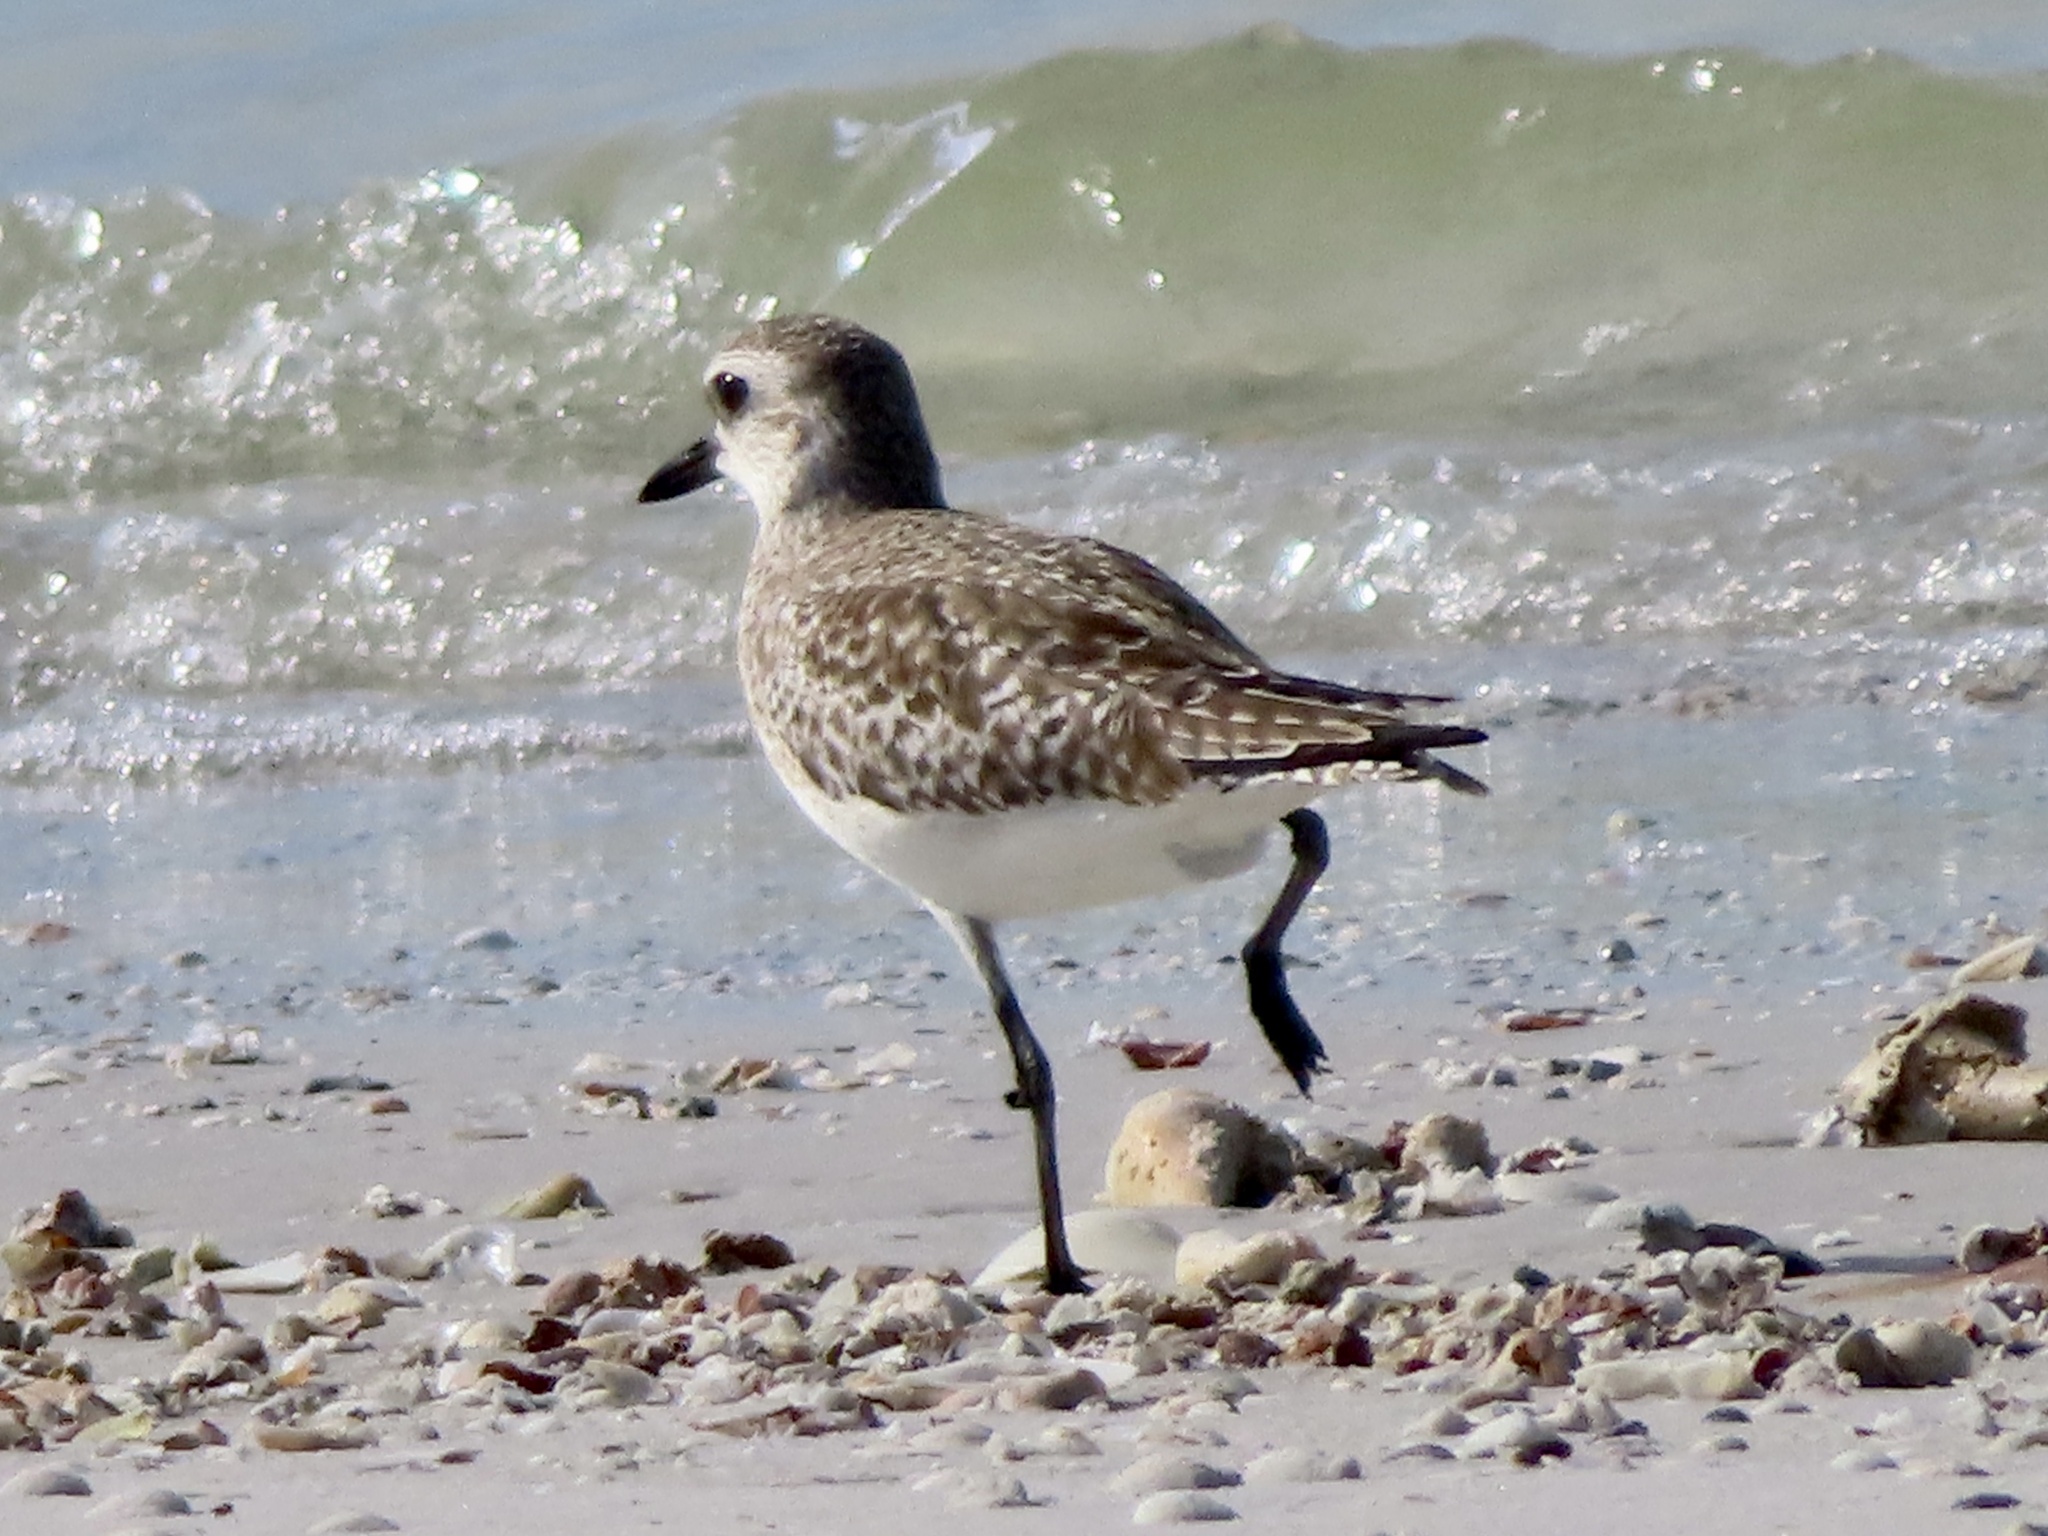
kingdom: Animalia
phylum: Chordata
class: Aves
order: Charadriiformes
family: Charadriidae
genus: Pluvialis
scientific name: Pluvialis squatarola
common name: Grey plover
